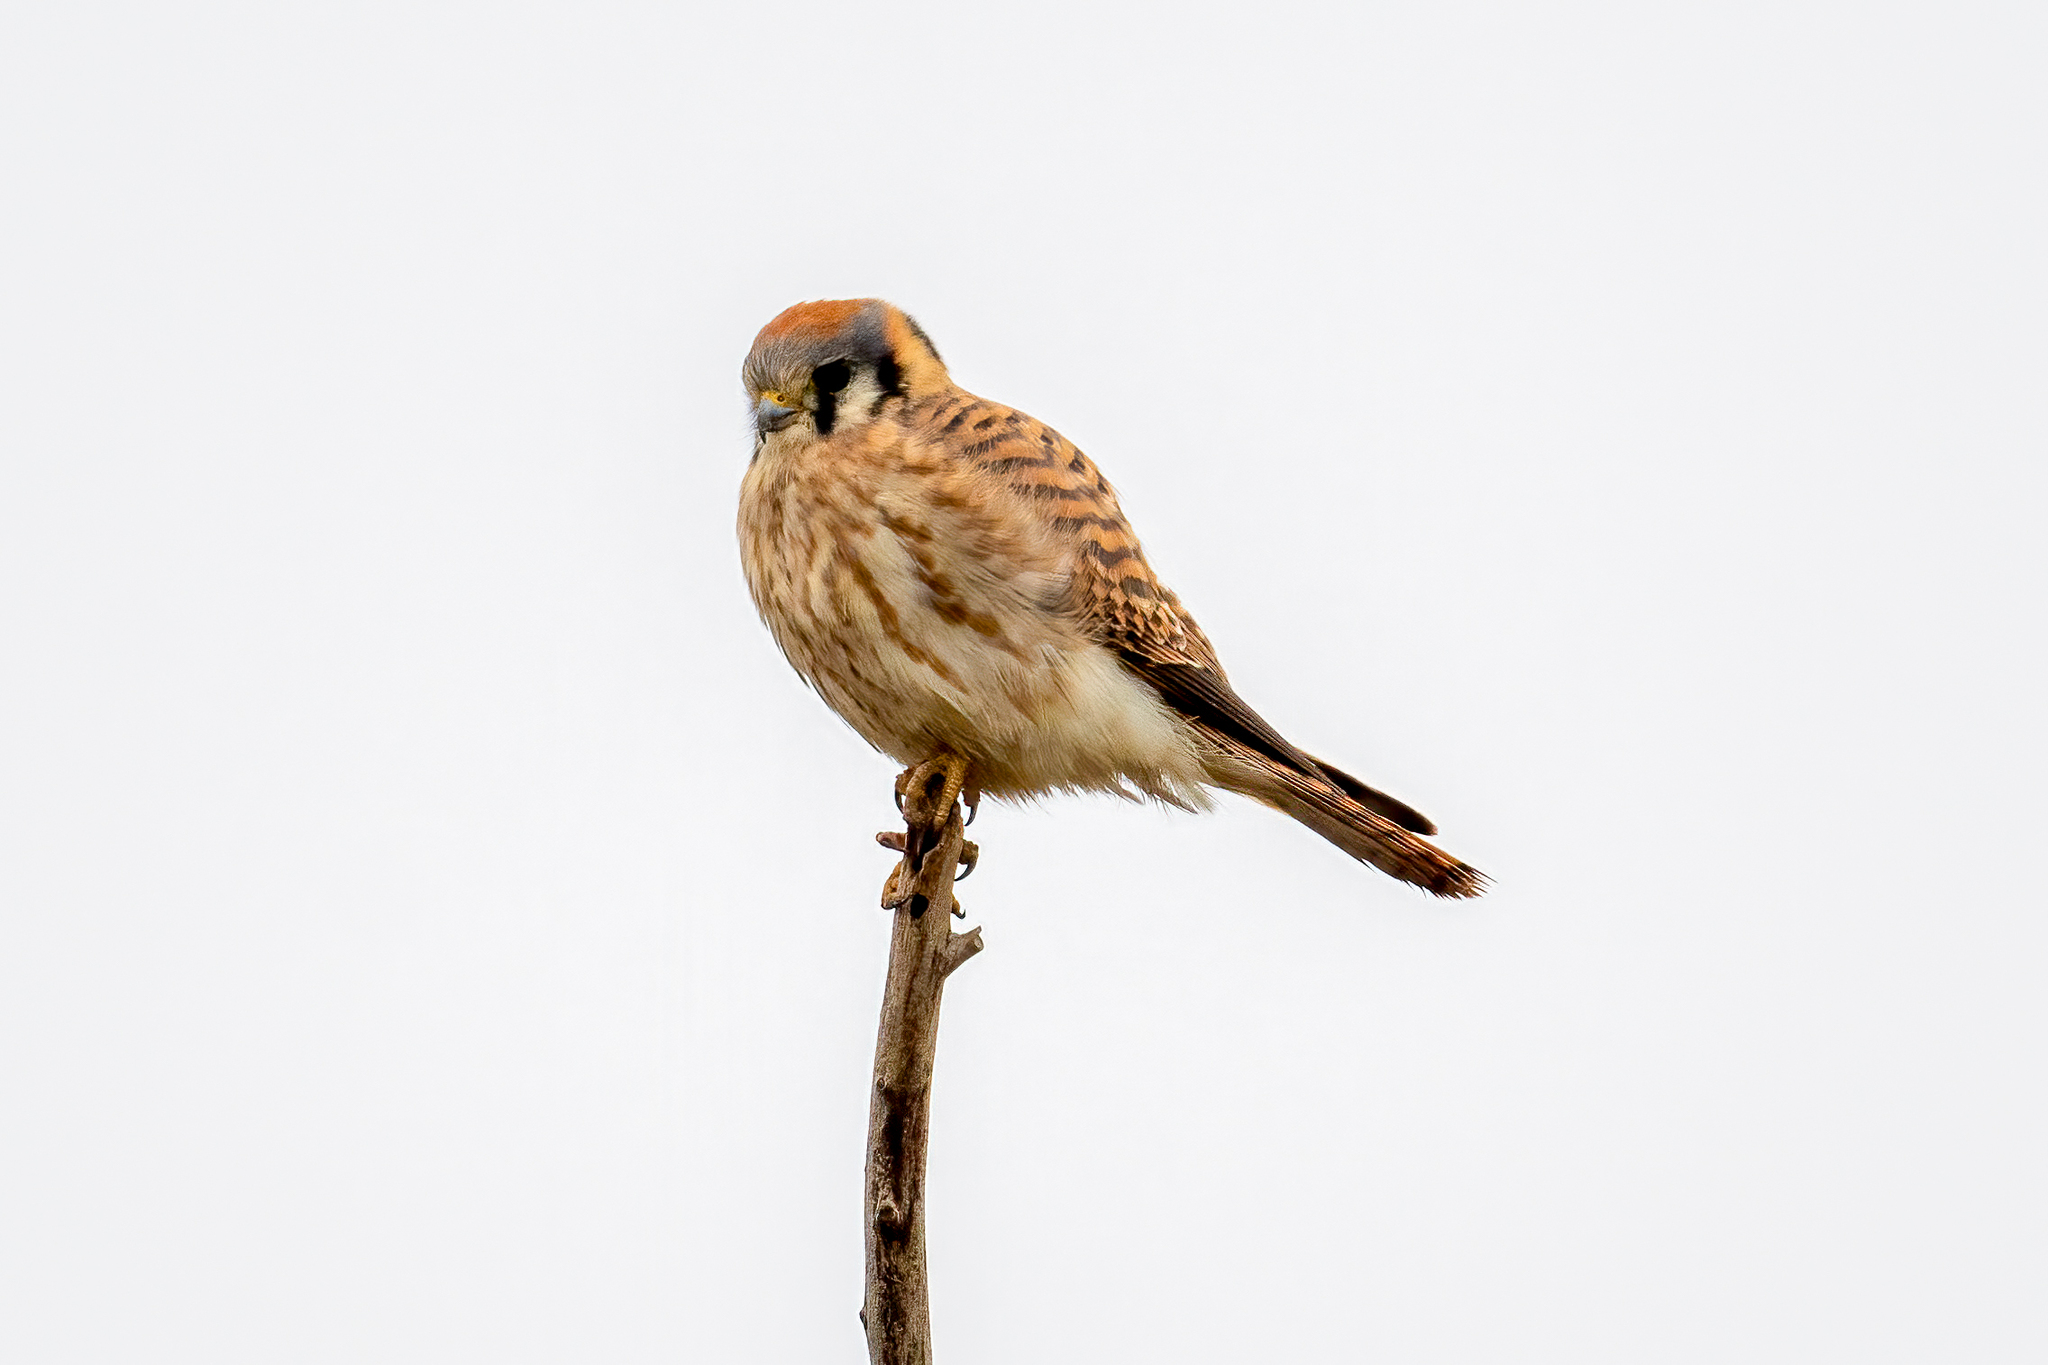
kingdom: Animalia
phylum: Chordata
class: Aves
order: Falconiformes
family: Falconidae
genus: Falco
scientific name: Falco sparverius
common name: American kestrel
